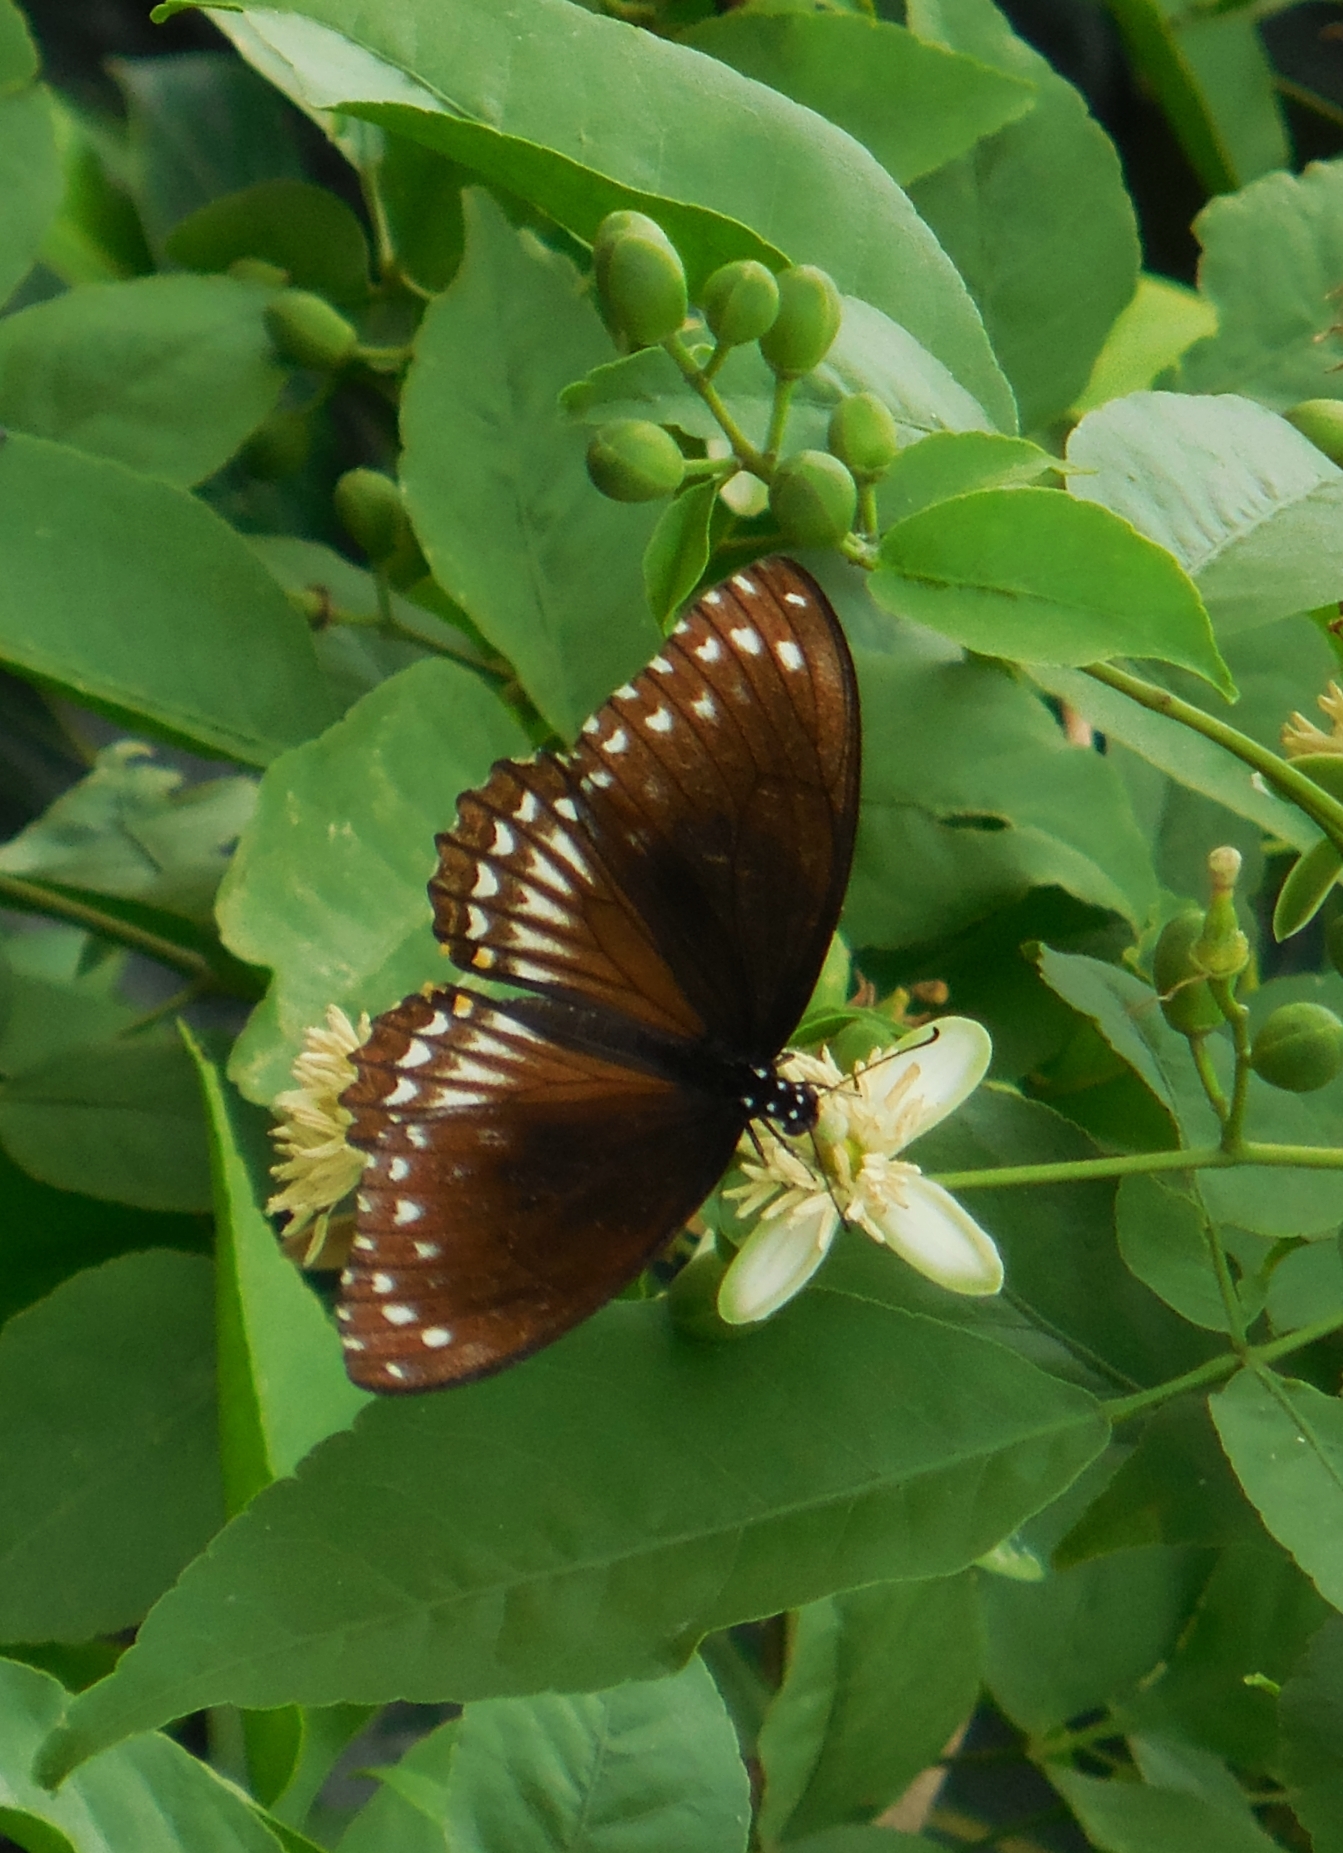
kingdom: Animalia
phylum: Arthropoda
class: Insecta
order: Lepidoptera
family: Papilionidae
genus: Chilasa
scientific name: Chilasa clytia
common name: Common mime
